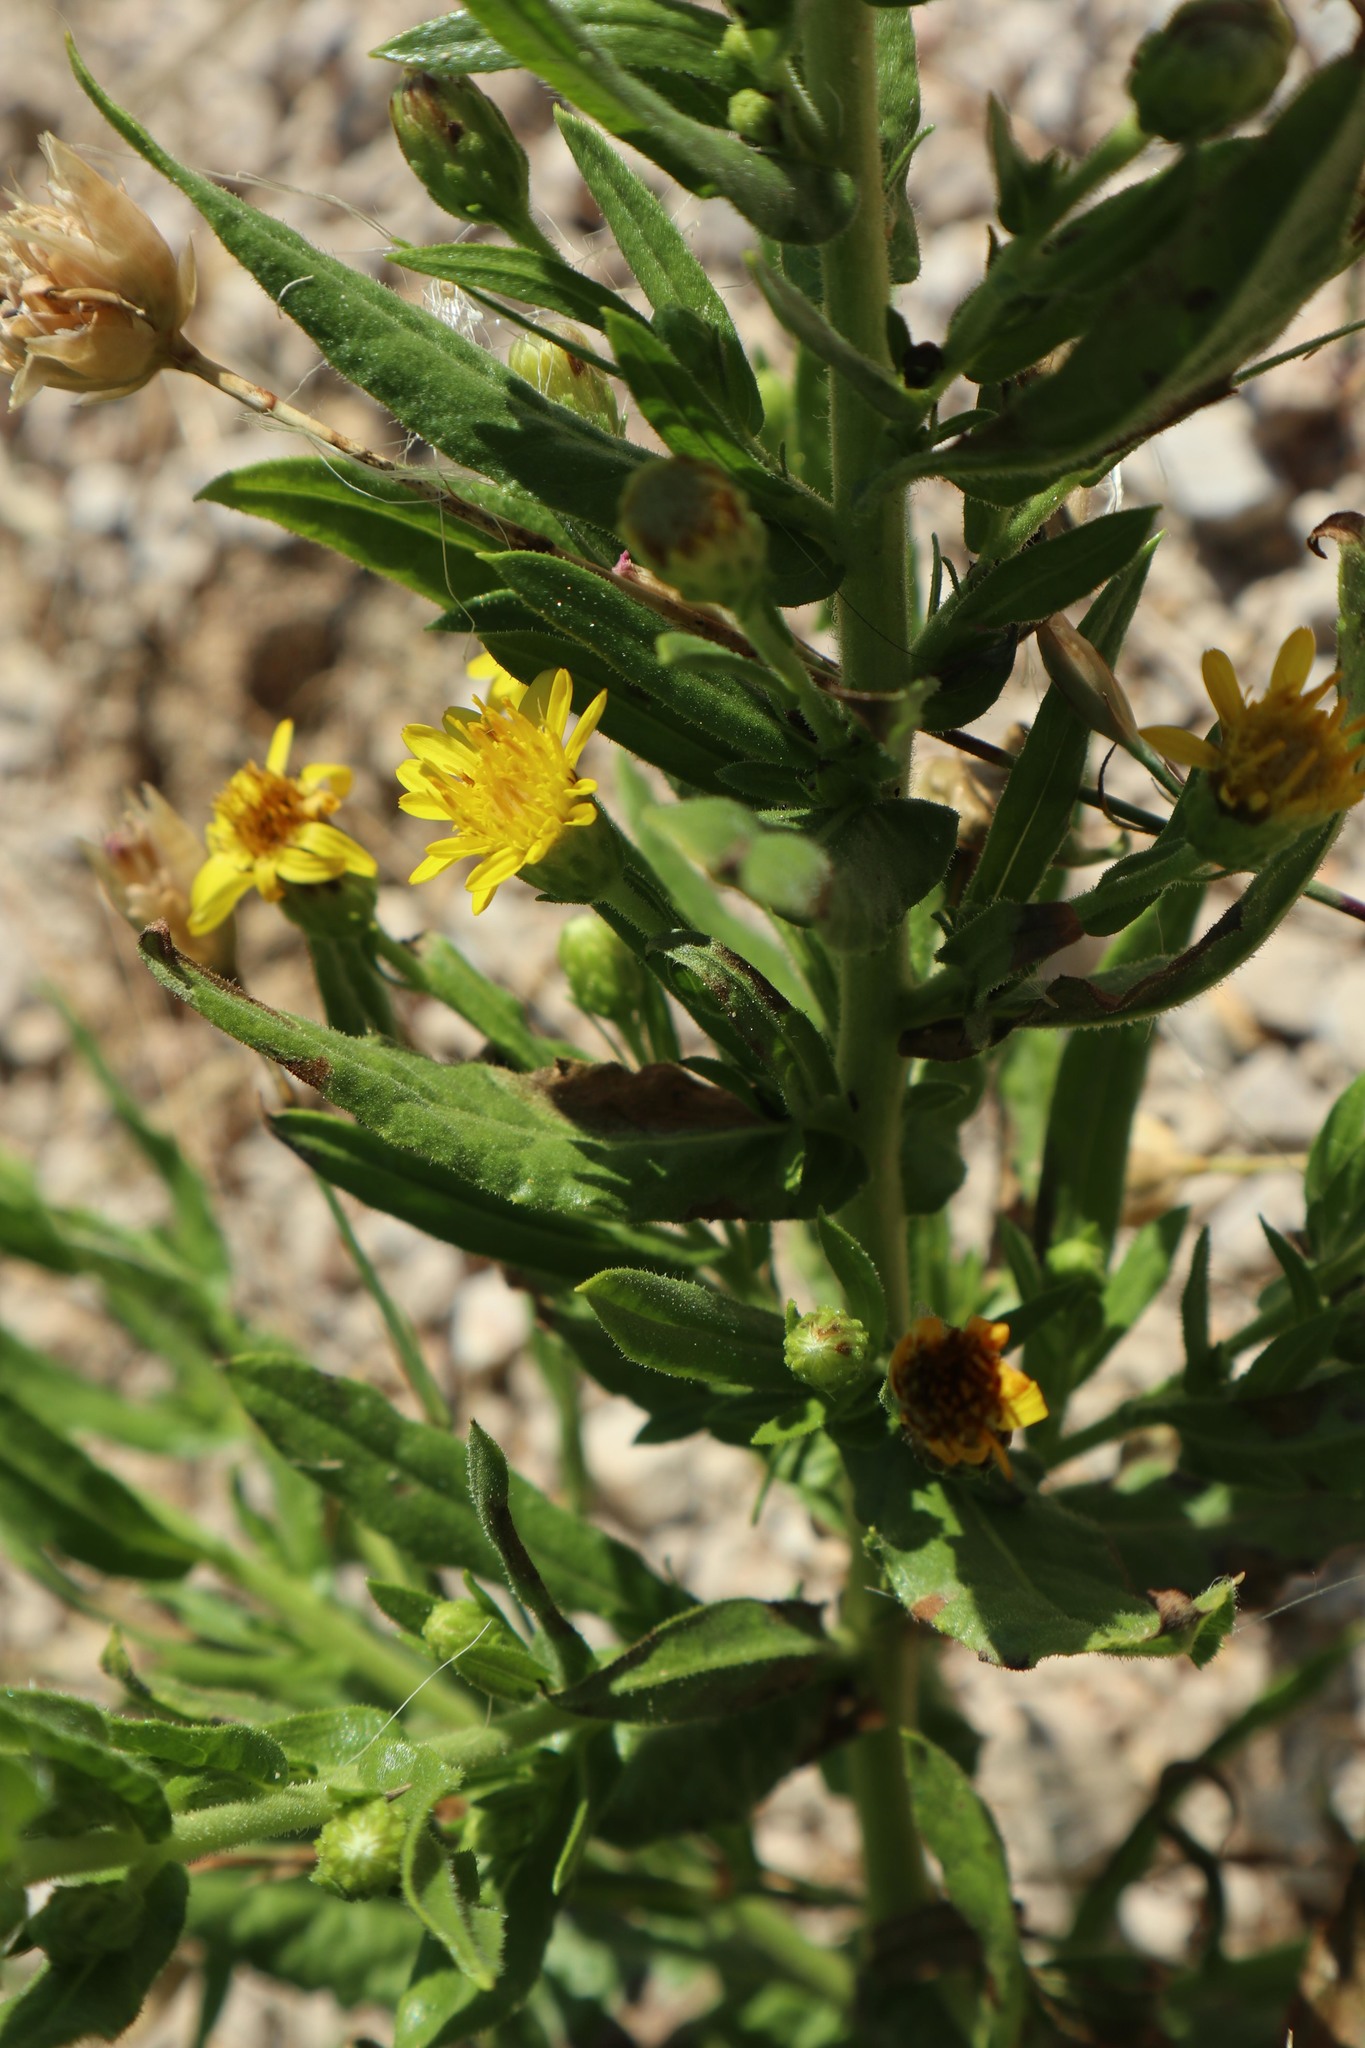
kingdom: Plantae
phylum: Tracheophyta
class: Magnoliopsida
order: Asterales
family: Asteraceae
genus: Dittrichia
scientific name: Dittrichia viscosa
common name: Woody fleabane
